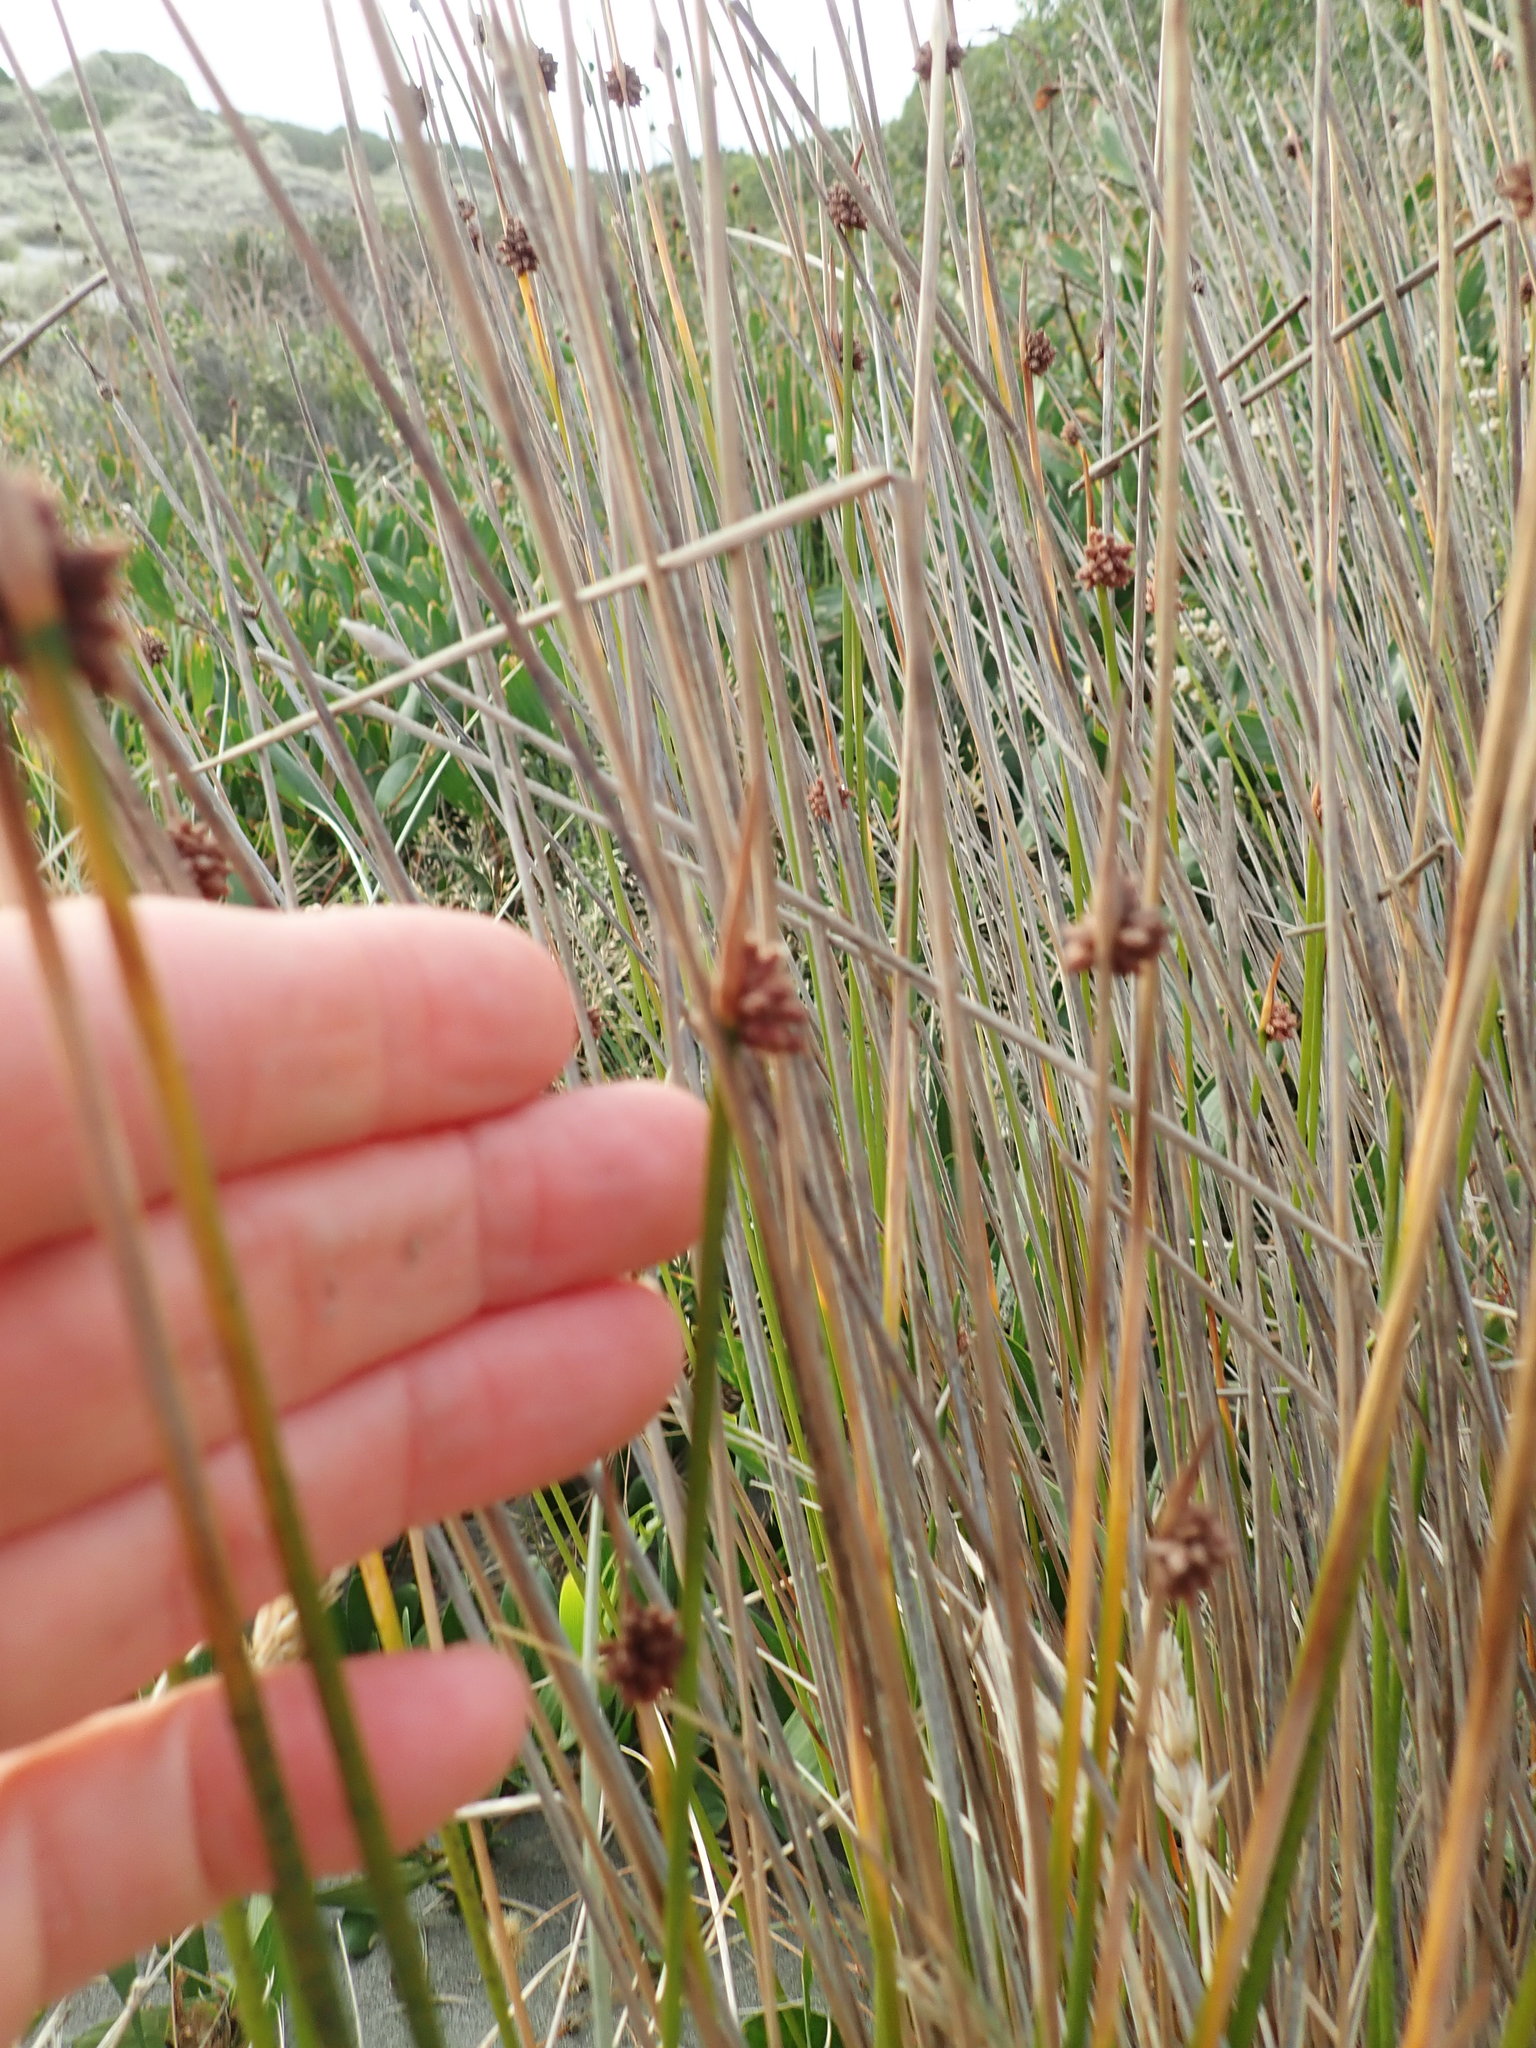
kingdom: Plantae
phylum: Tracheophyta
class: Liliopsida
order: Poales
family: Cyperaceae
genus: Ficinia
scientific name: Ficinia nodosa
